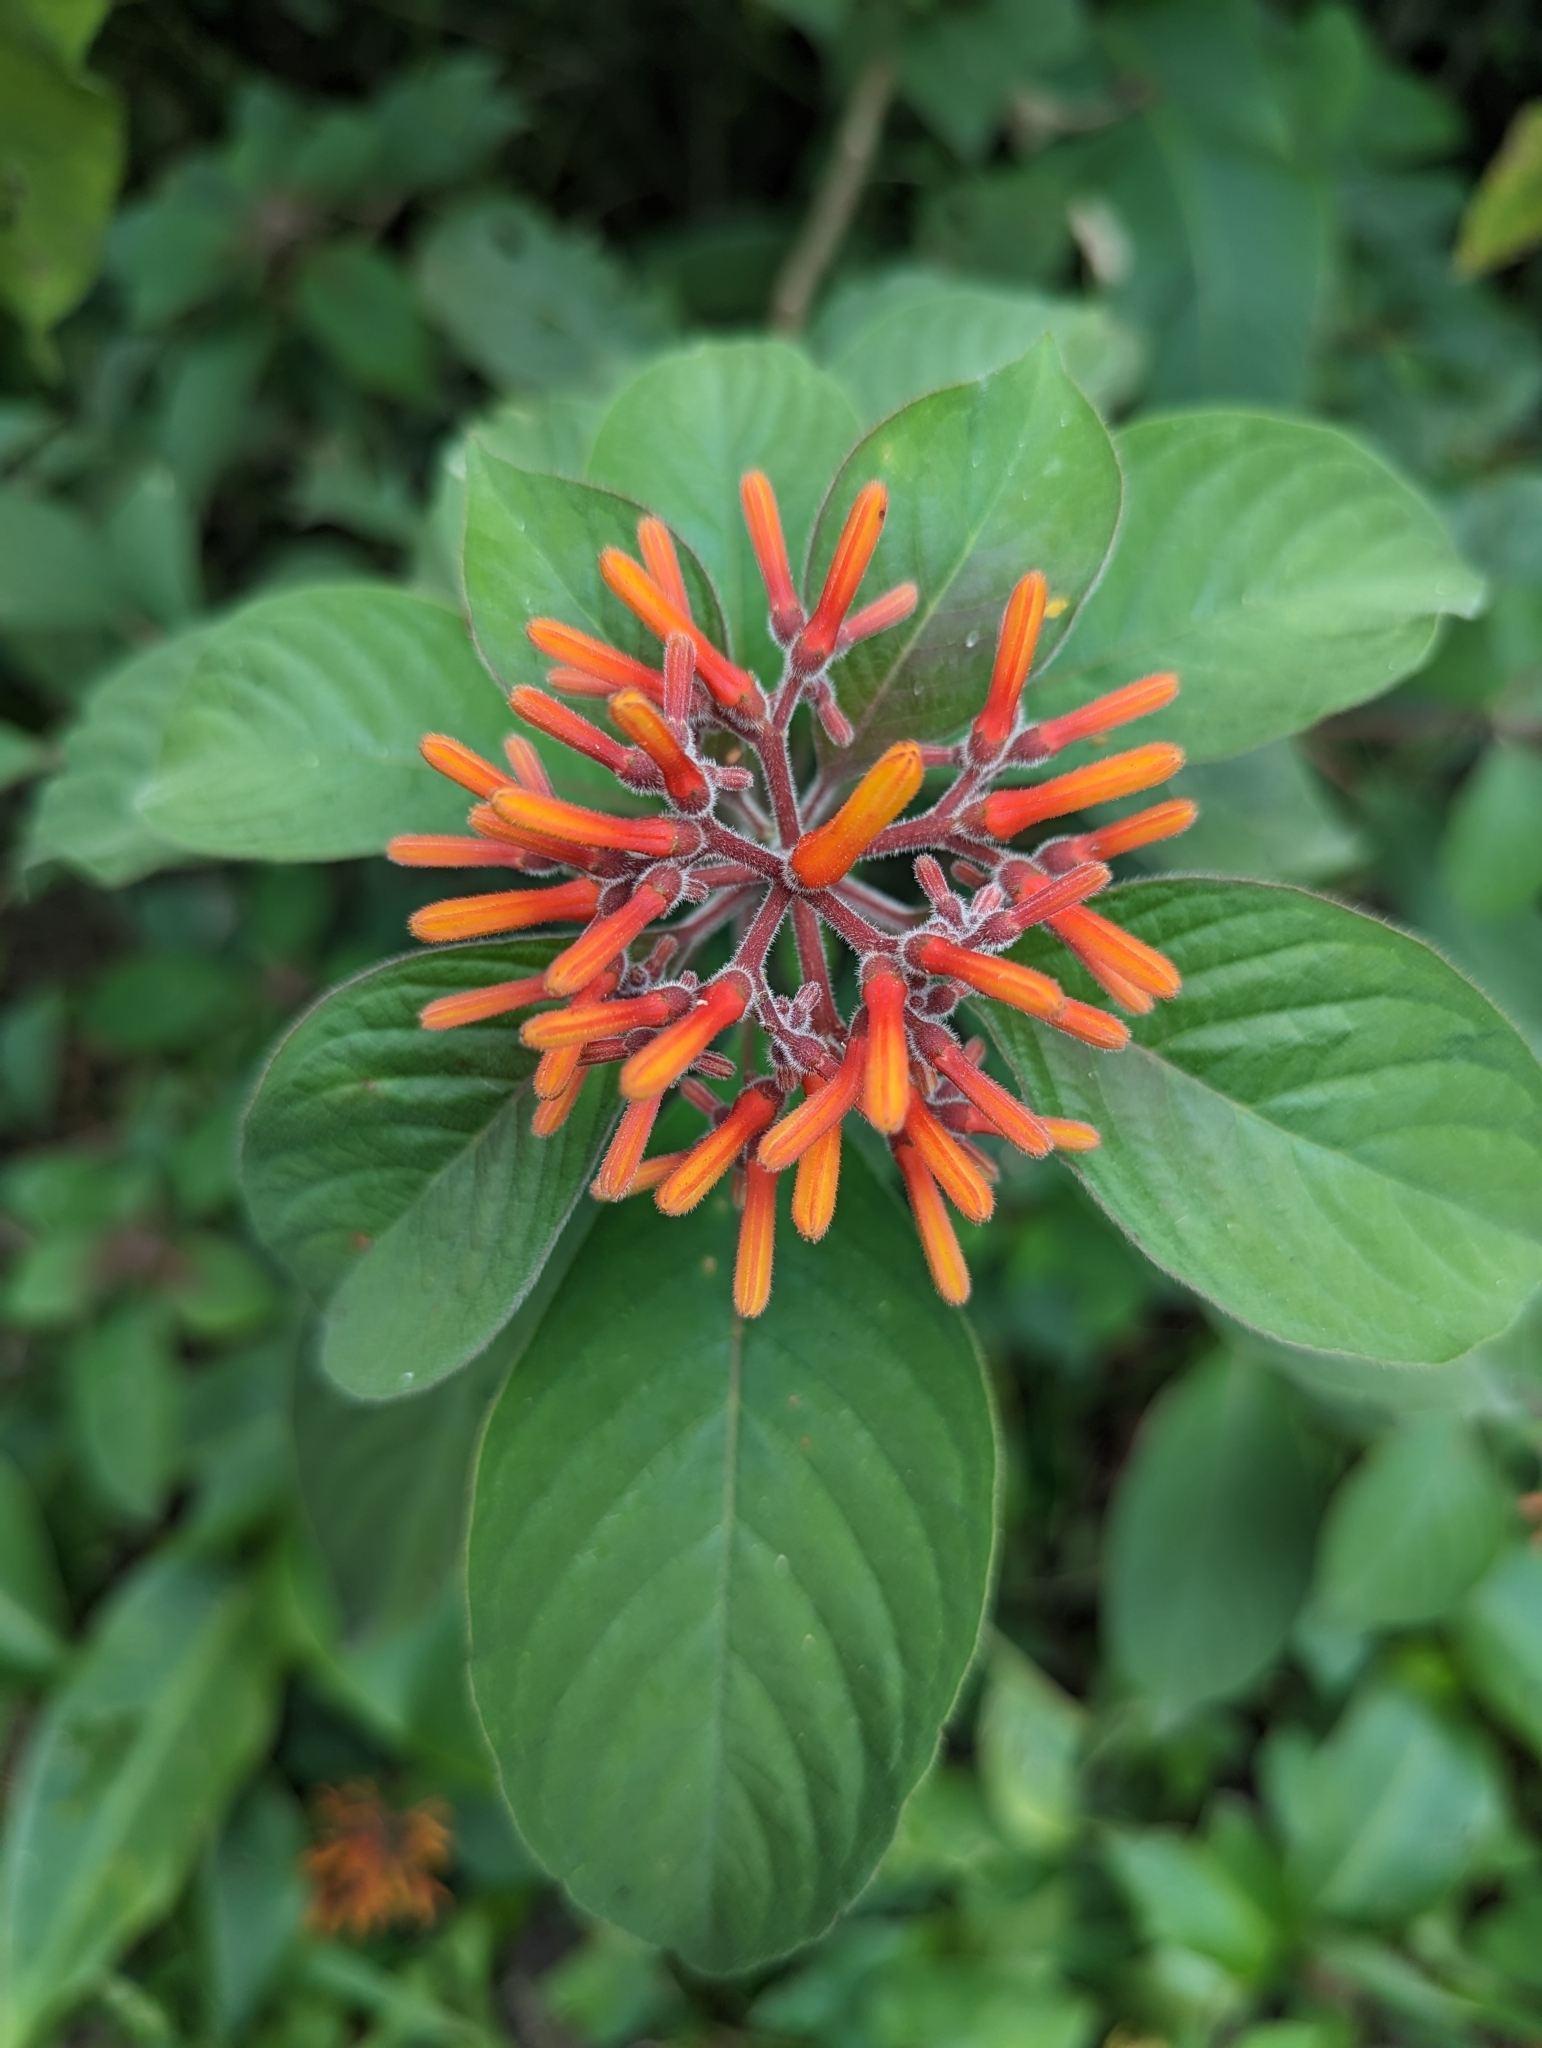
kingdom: Plantae
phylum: Tracheophyta
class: Magnoliopsida
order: Gentianales
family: Rubiaceae
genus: Hamelia
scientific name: Hamelia patens
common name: Redhead
